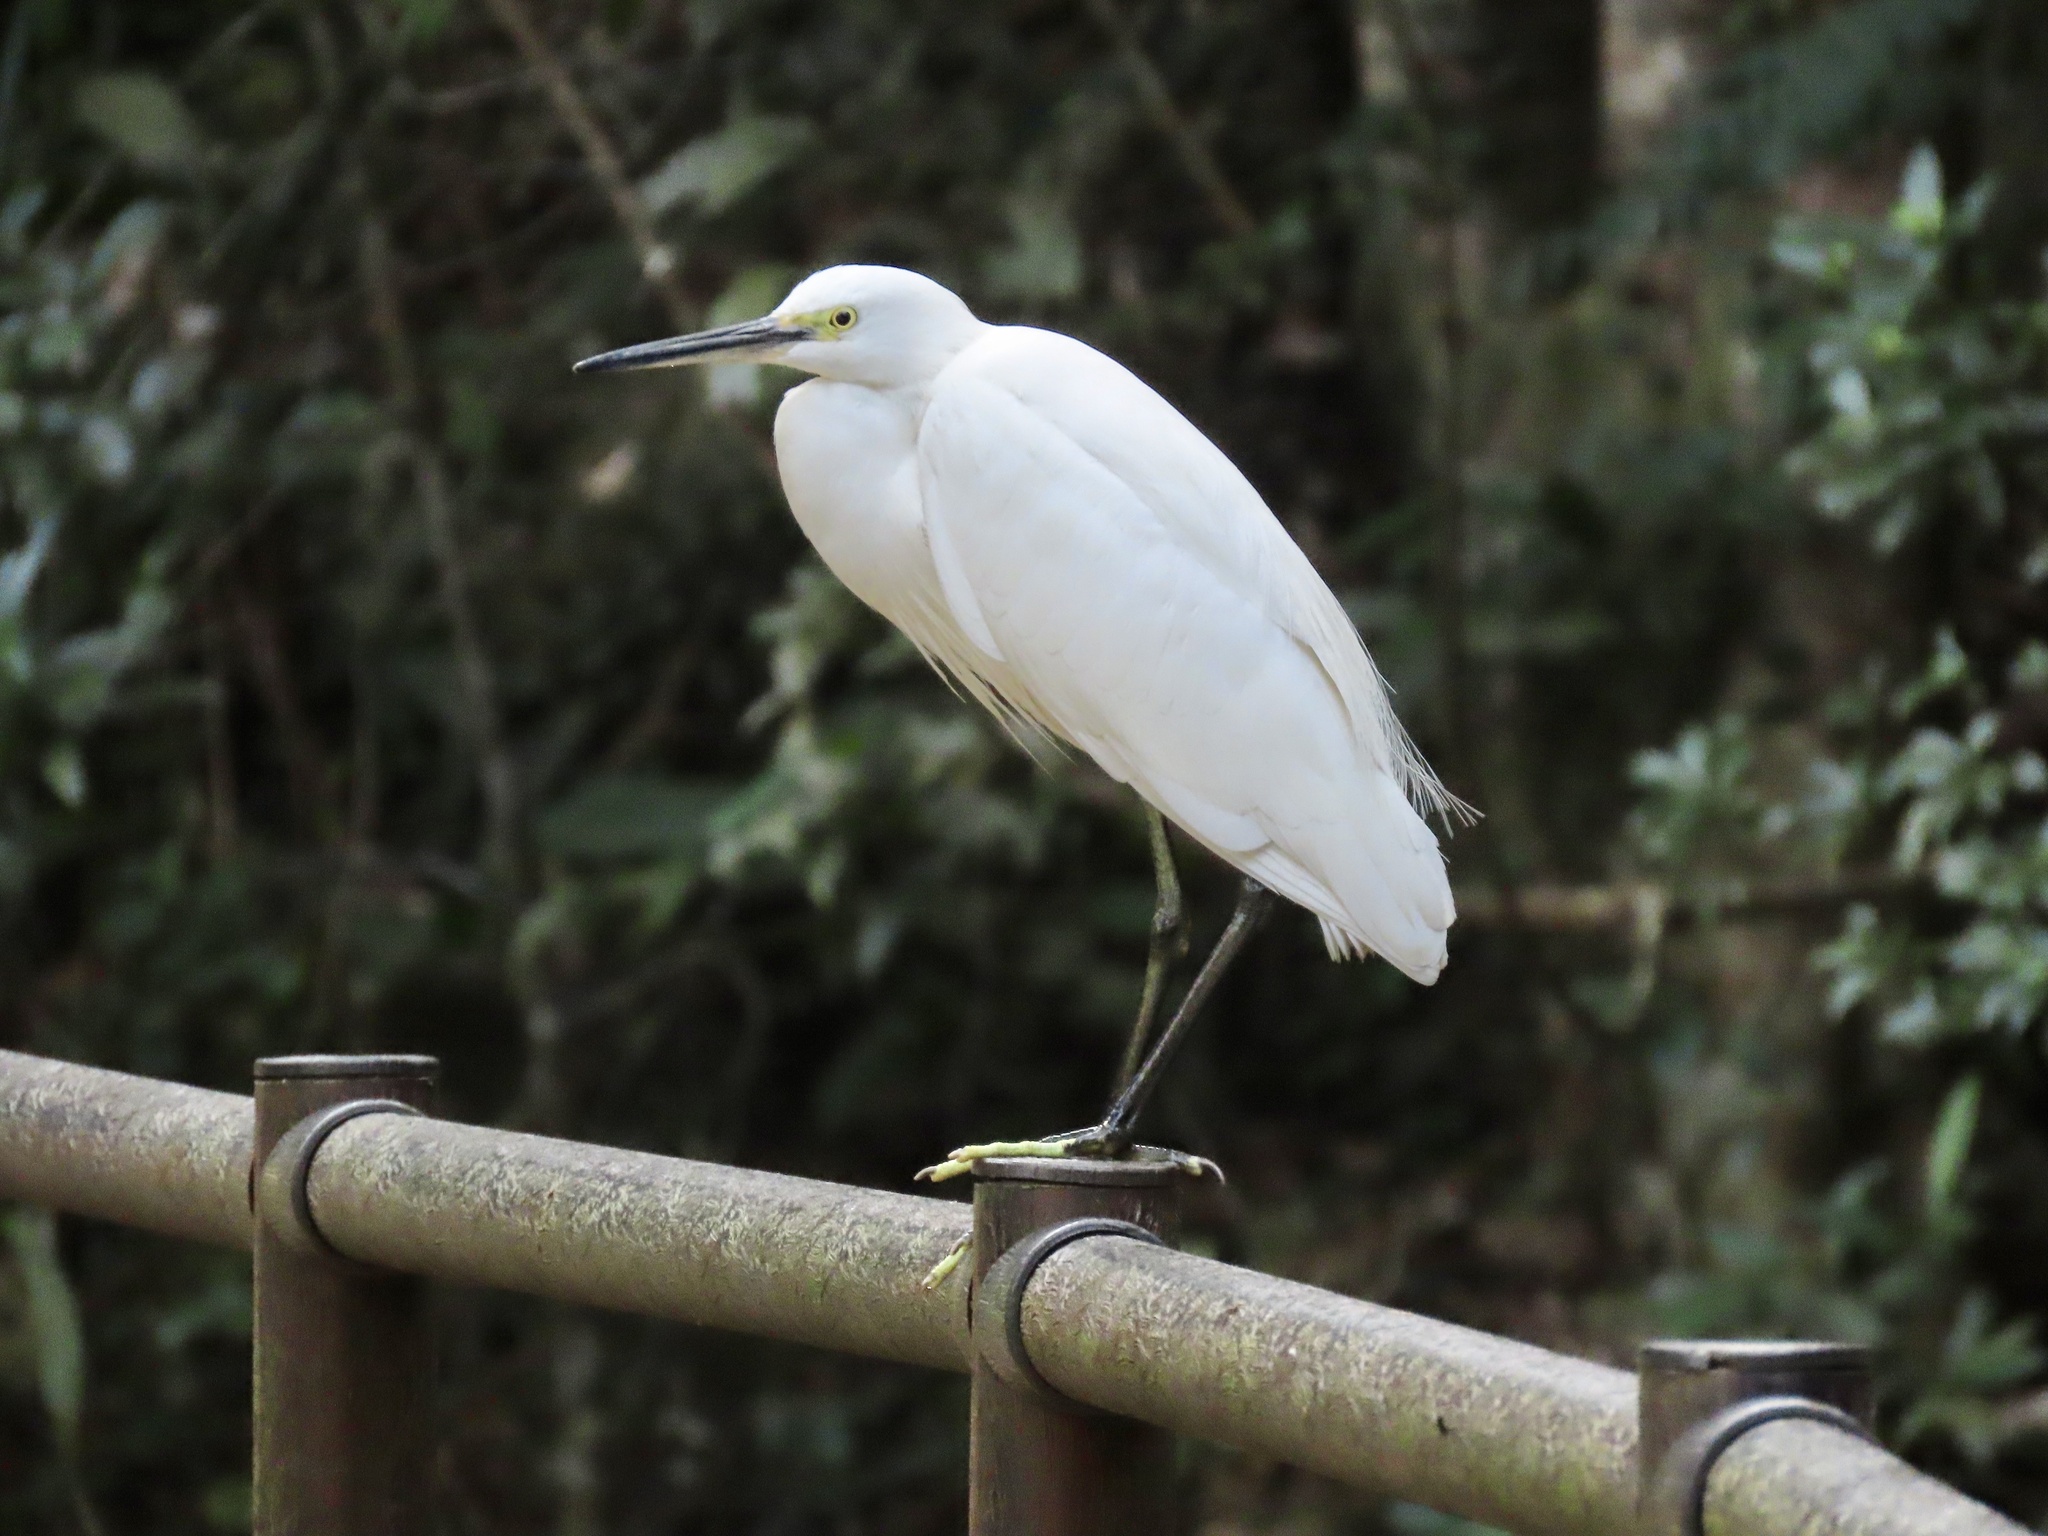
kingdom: Animalia
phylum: Chordata
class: Aves
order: Pelecaniformes
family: Ardeidae
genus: Egretta
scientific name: Egretta garzetta
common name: Little egret
